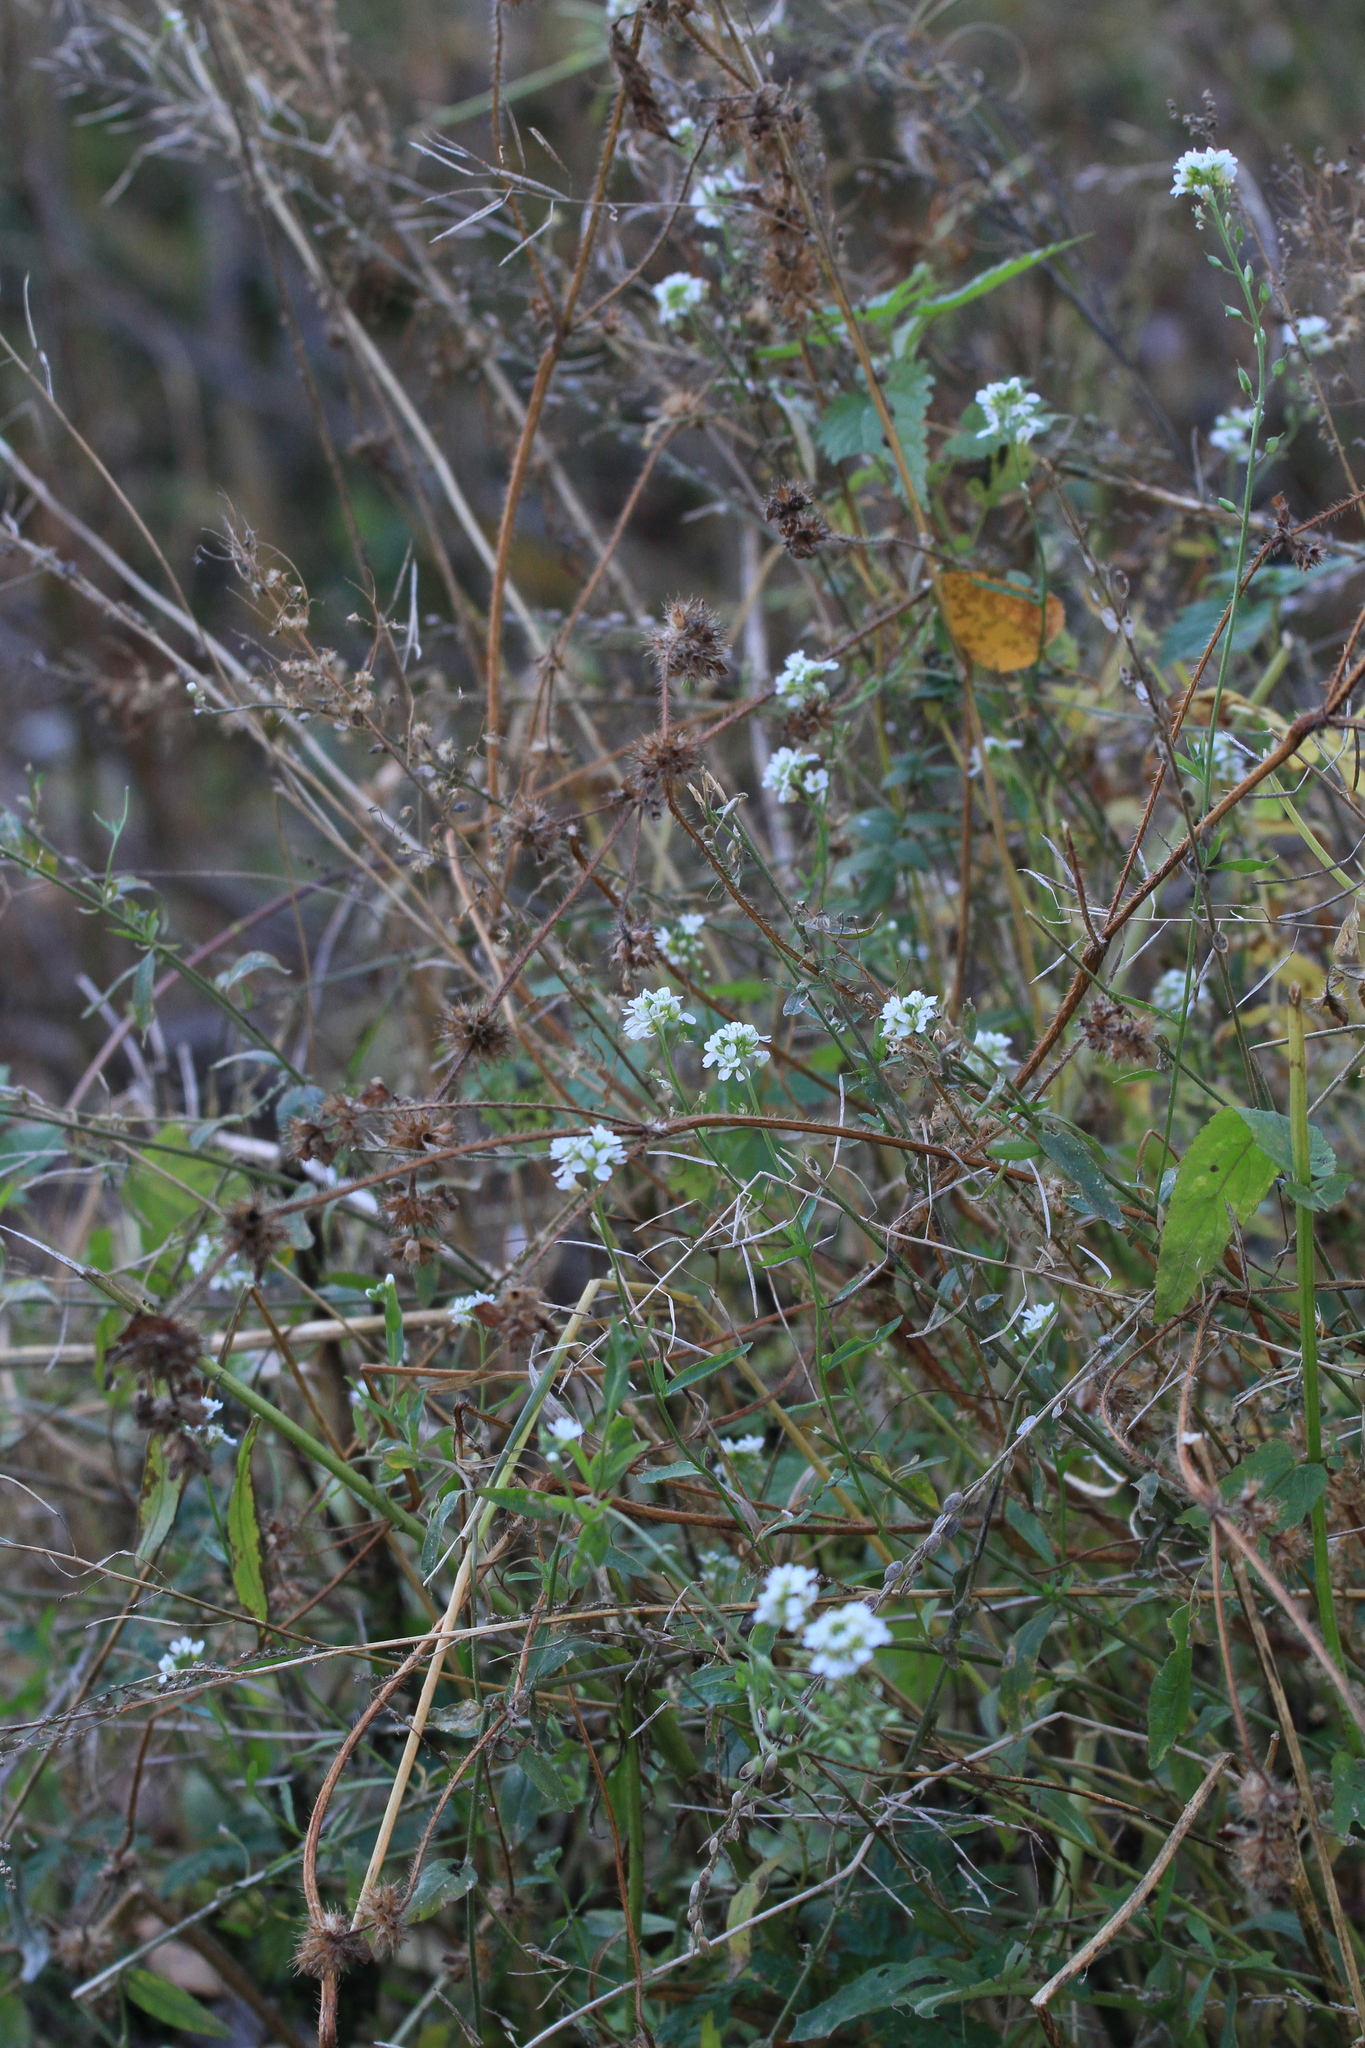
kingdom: Plantae
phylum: Tracheophyta
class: Magnoliopsida
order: Brassicales
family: Brassicaceae
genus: Berteroa
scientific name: Berteroa incana
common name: Hoary alison
